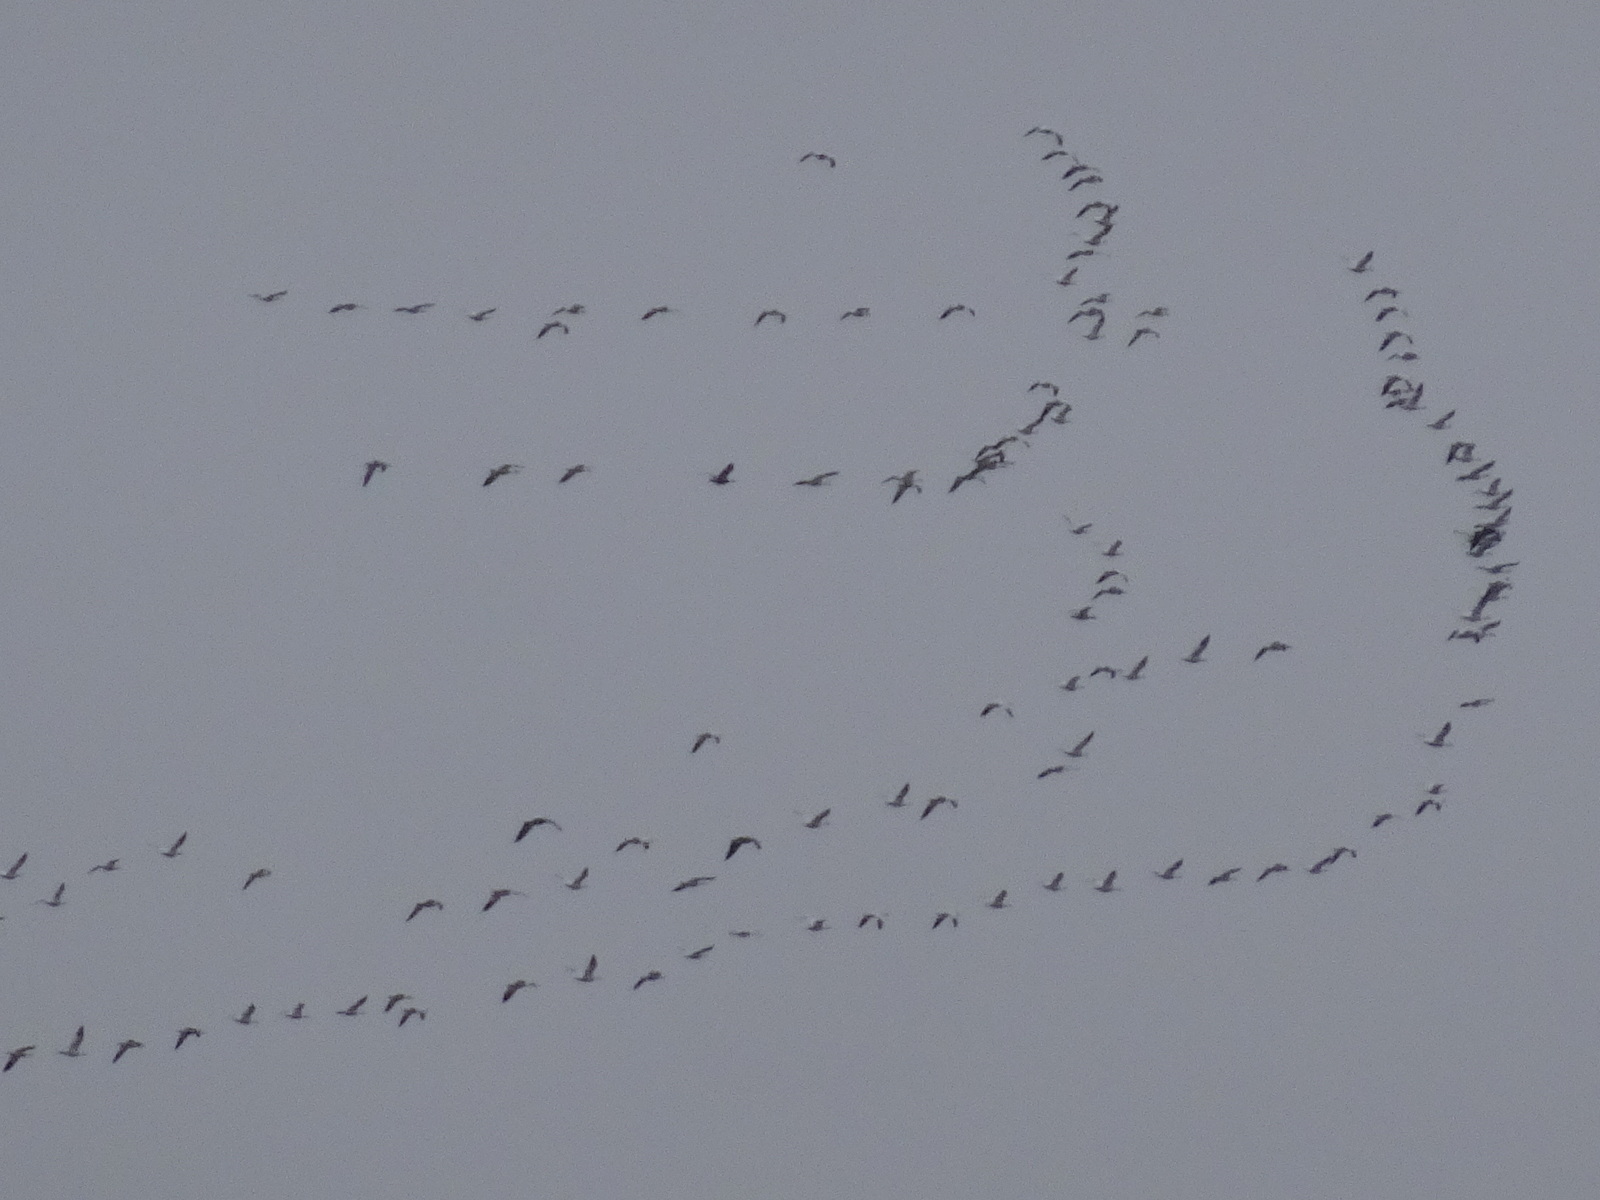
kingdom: Animalia
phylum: Chordata
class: Aves
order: Anseriformes
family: Anatidae
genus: Anser
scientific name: Anser caerulescens
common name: Snow goose
